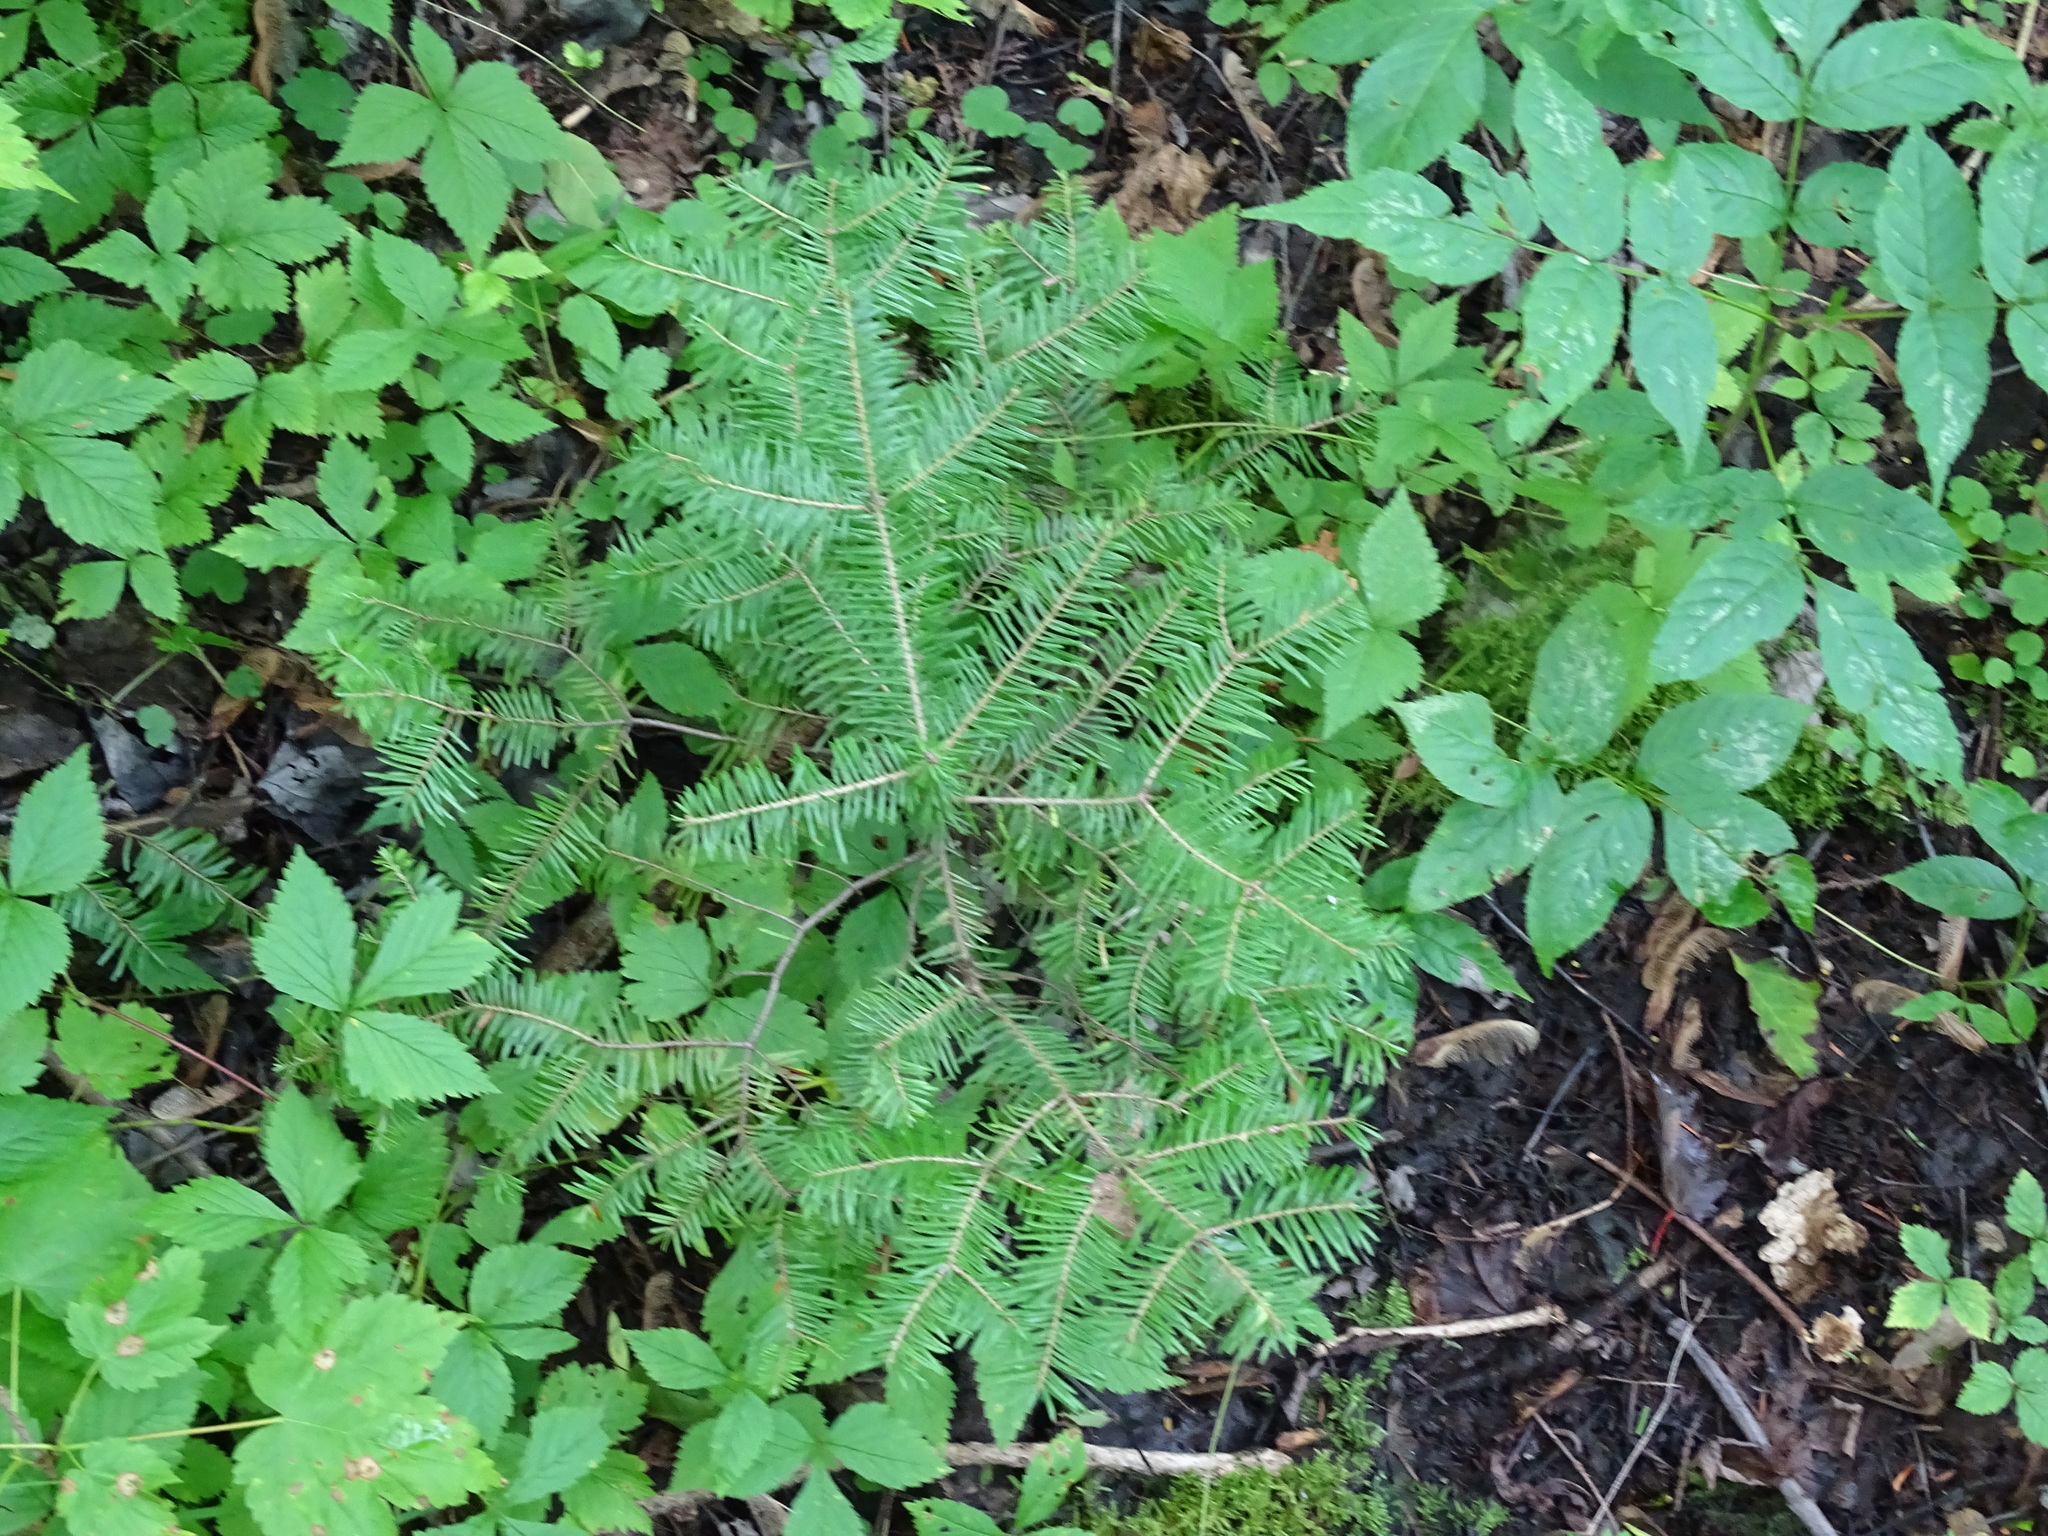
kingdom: Plantae
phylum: Tracheophyta
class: Pinopsida
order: Pinales
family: Pinaceae
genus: Abies
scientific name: Abies balsamea
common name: Balsam fir
